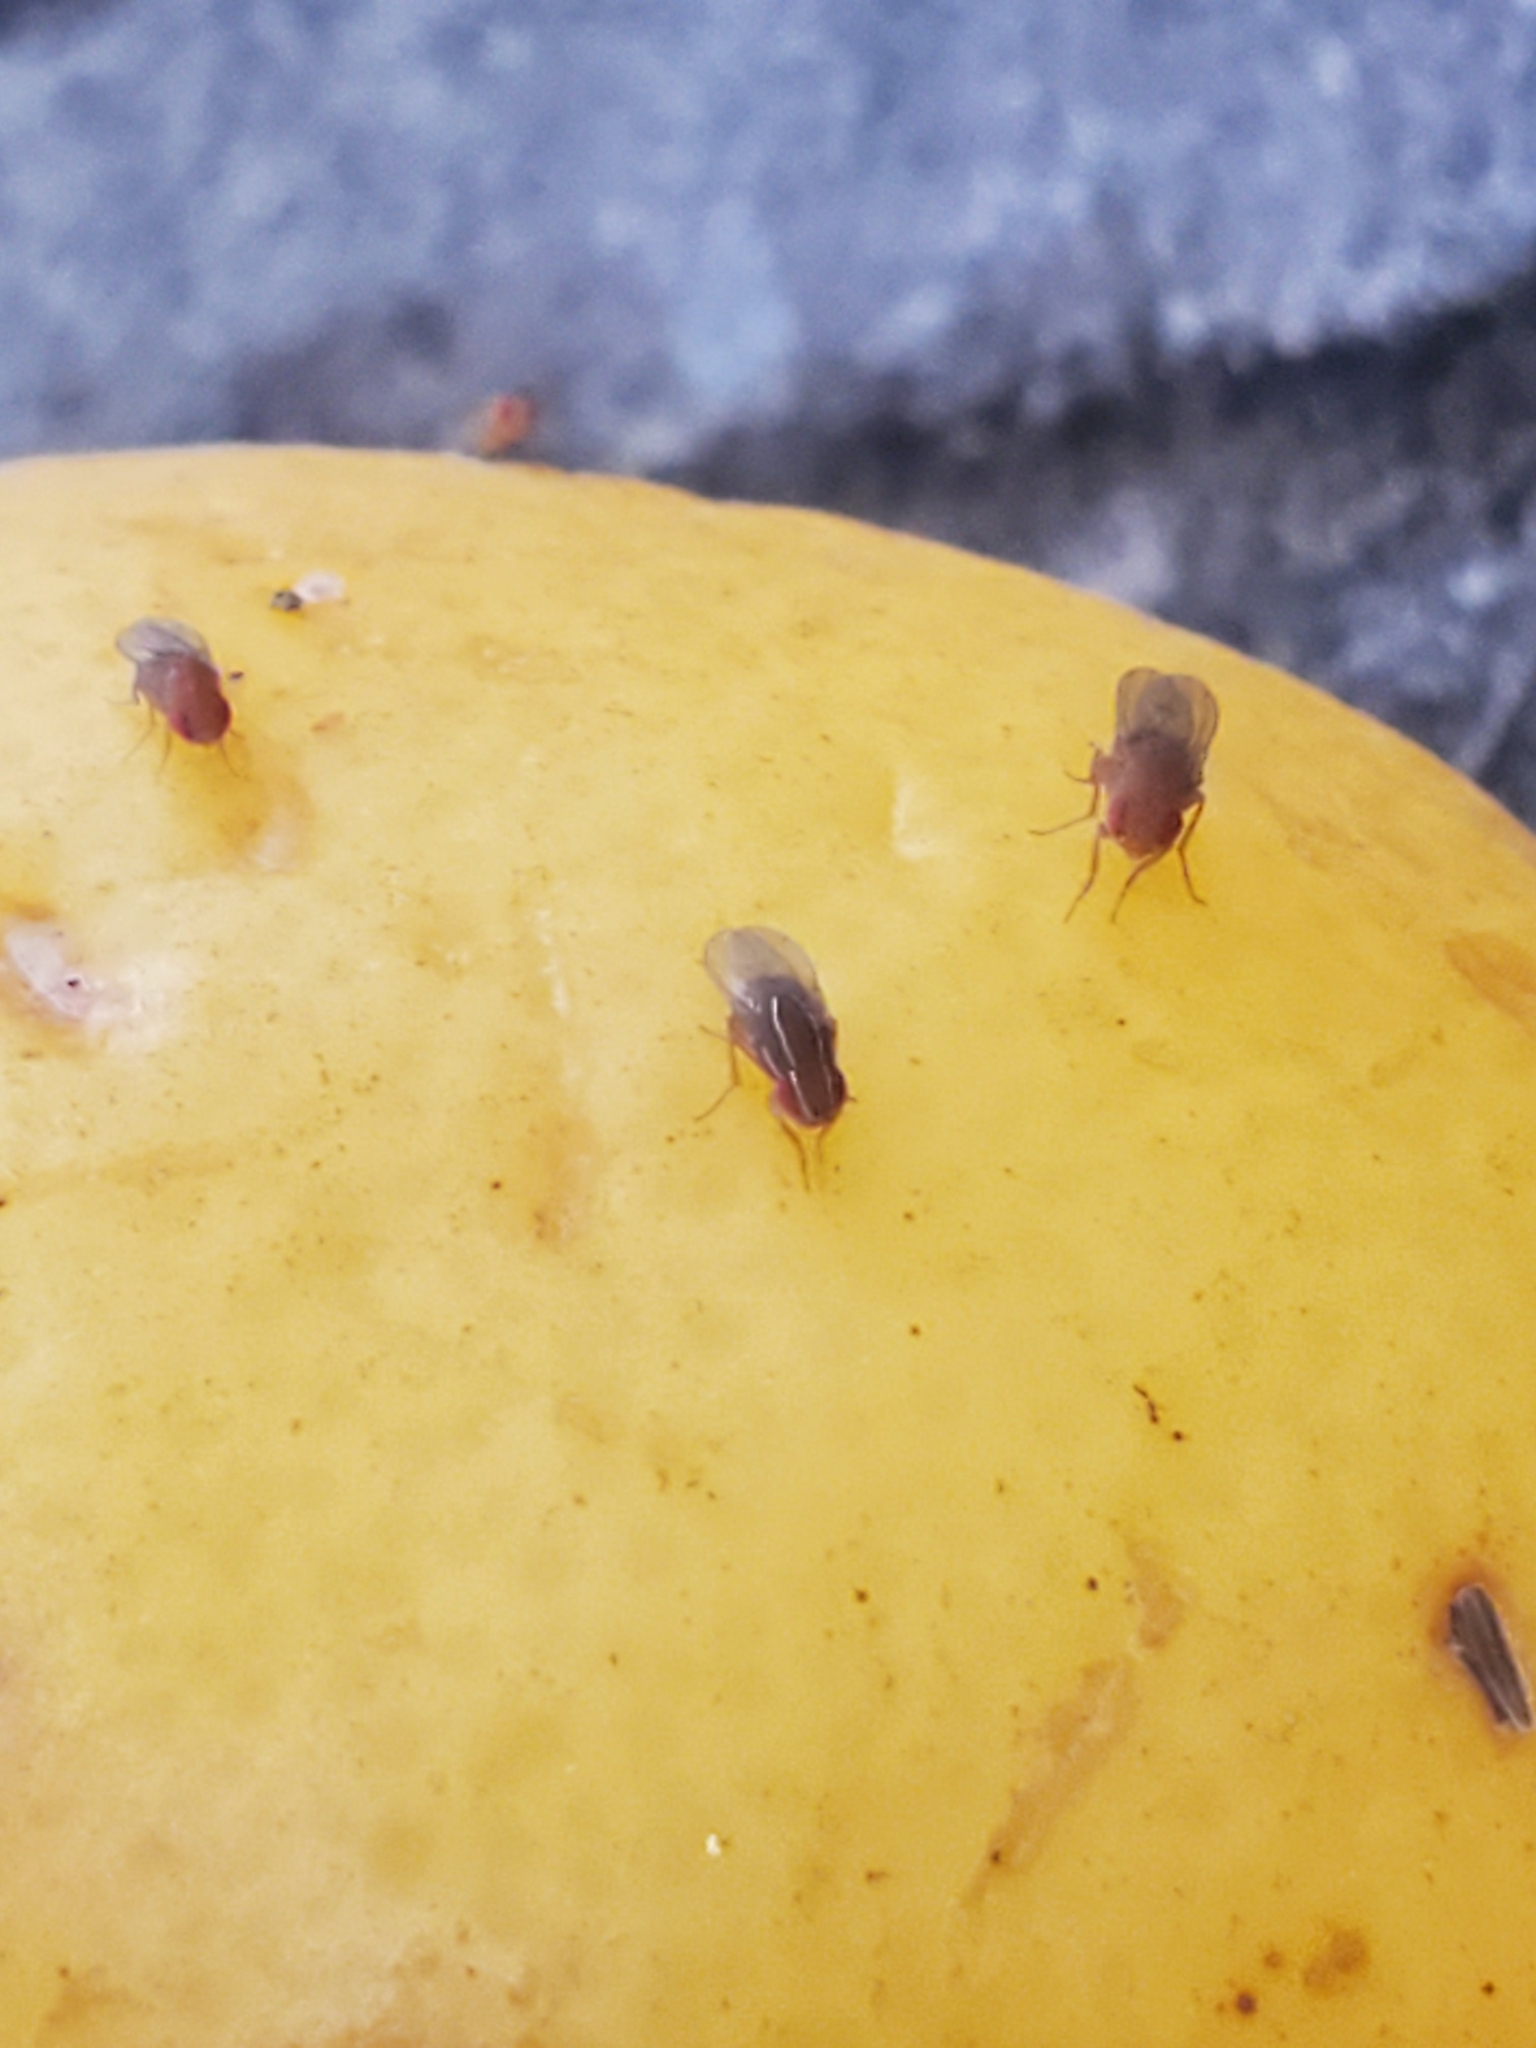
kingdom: Animalia
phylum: Arthropoda
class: Insecta
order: Diptera
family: Drosophilidae
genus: Zaprionus
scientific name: Zaprionus indianus
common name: African fig fly
